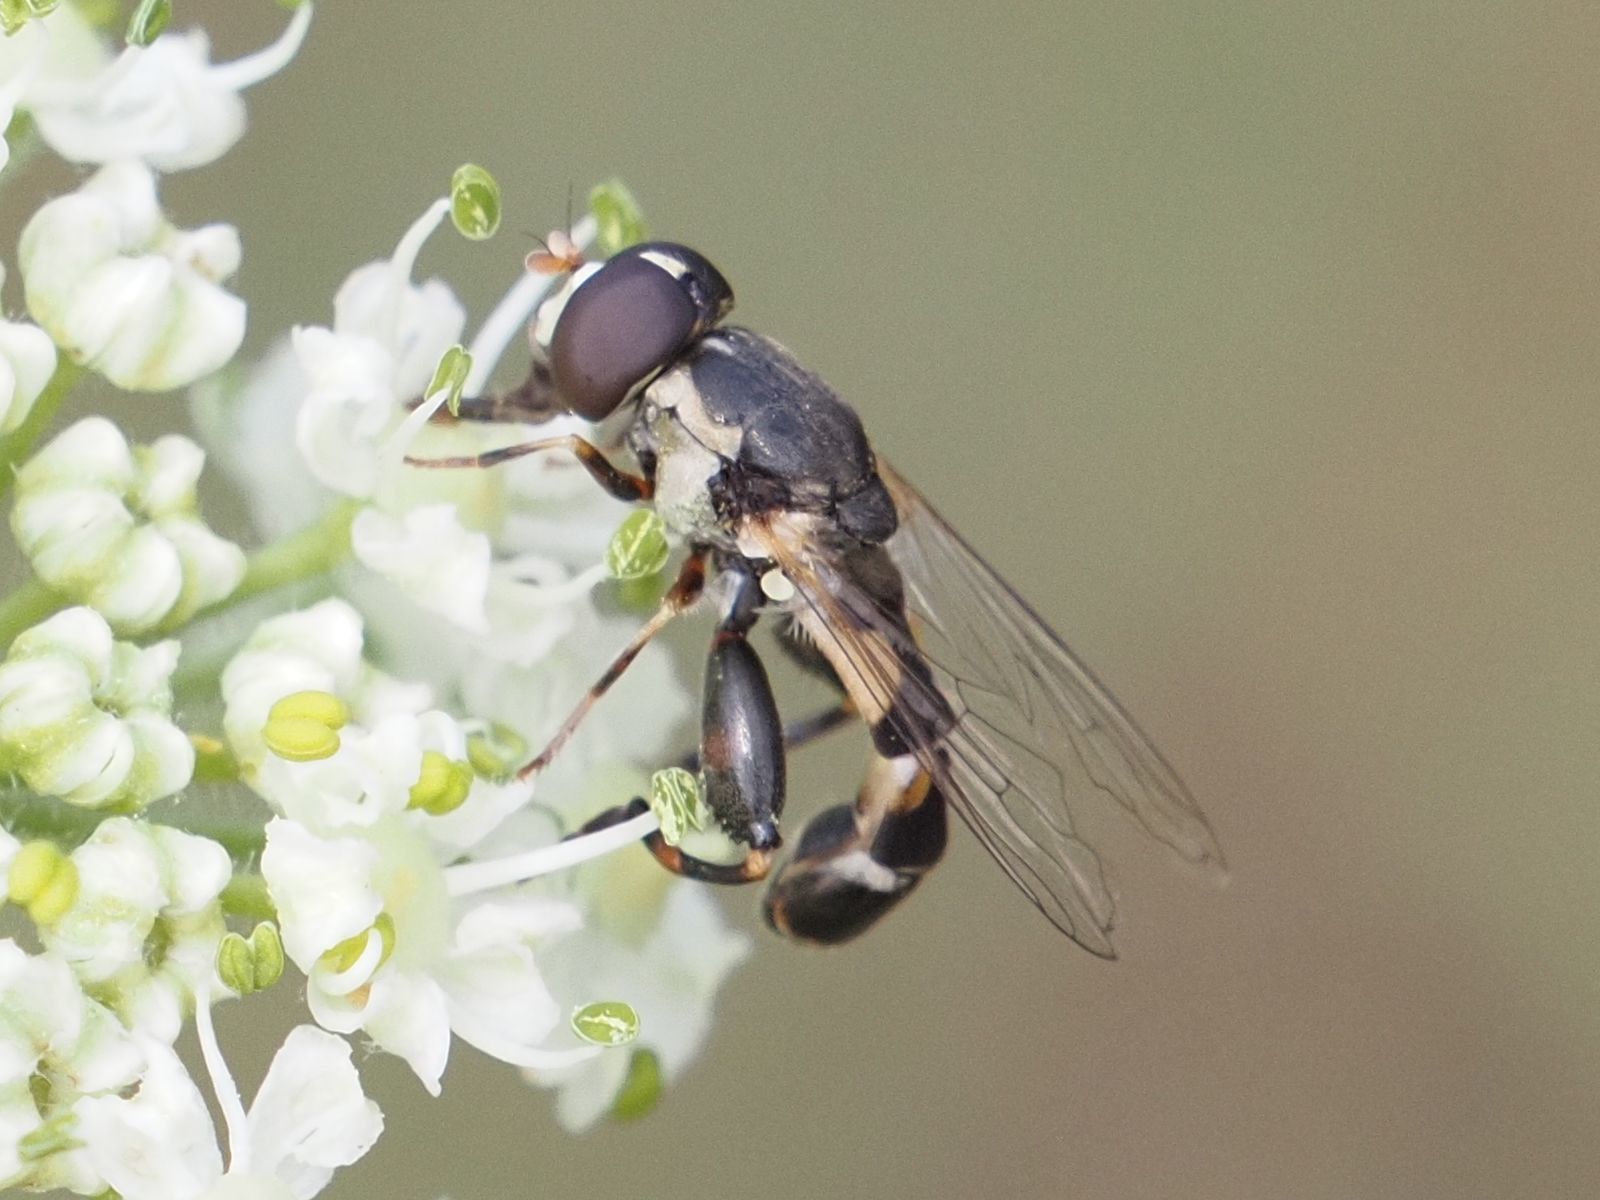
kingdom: Animalia
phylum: Arthropoda
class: Insecta
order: Diptera
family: Syrphidae
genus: Syritta
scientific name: Syritta pipiens
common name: Hover fly
